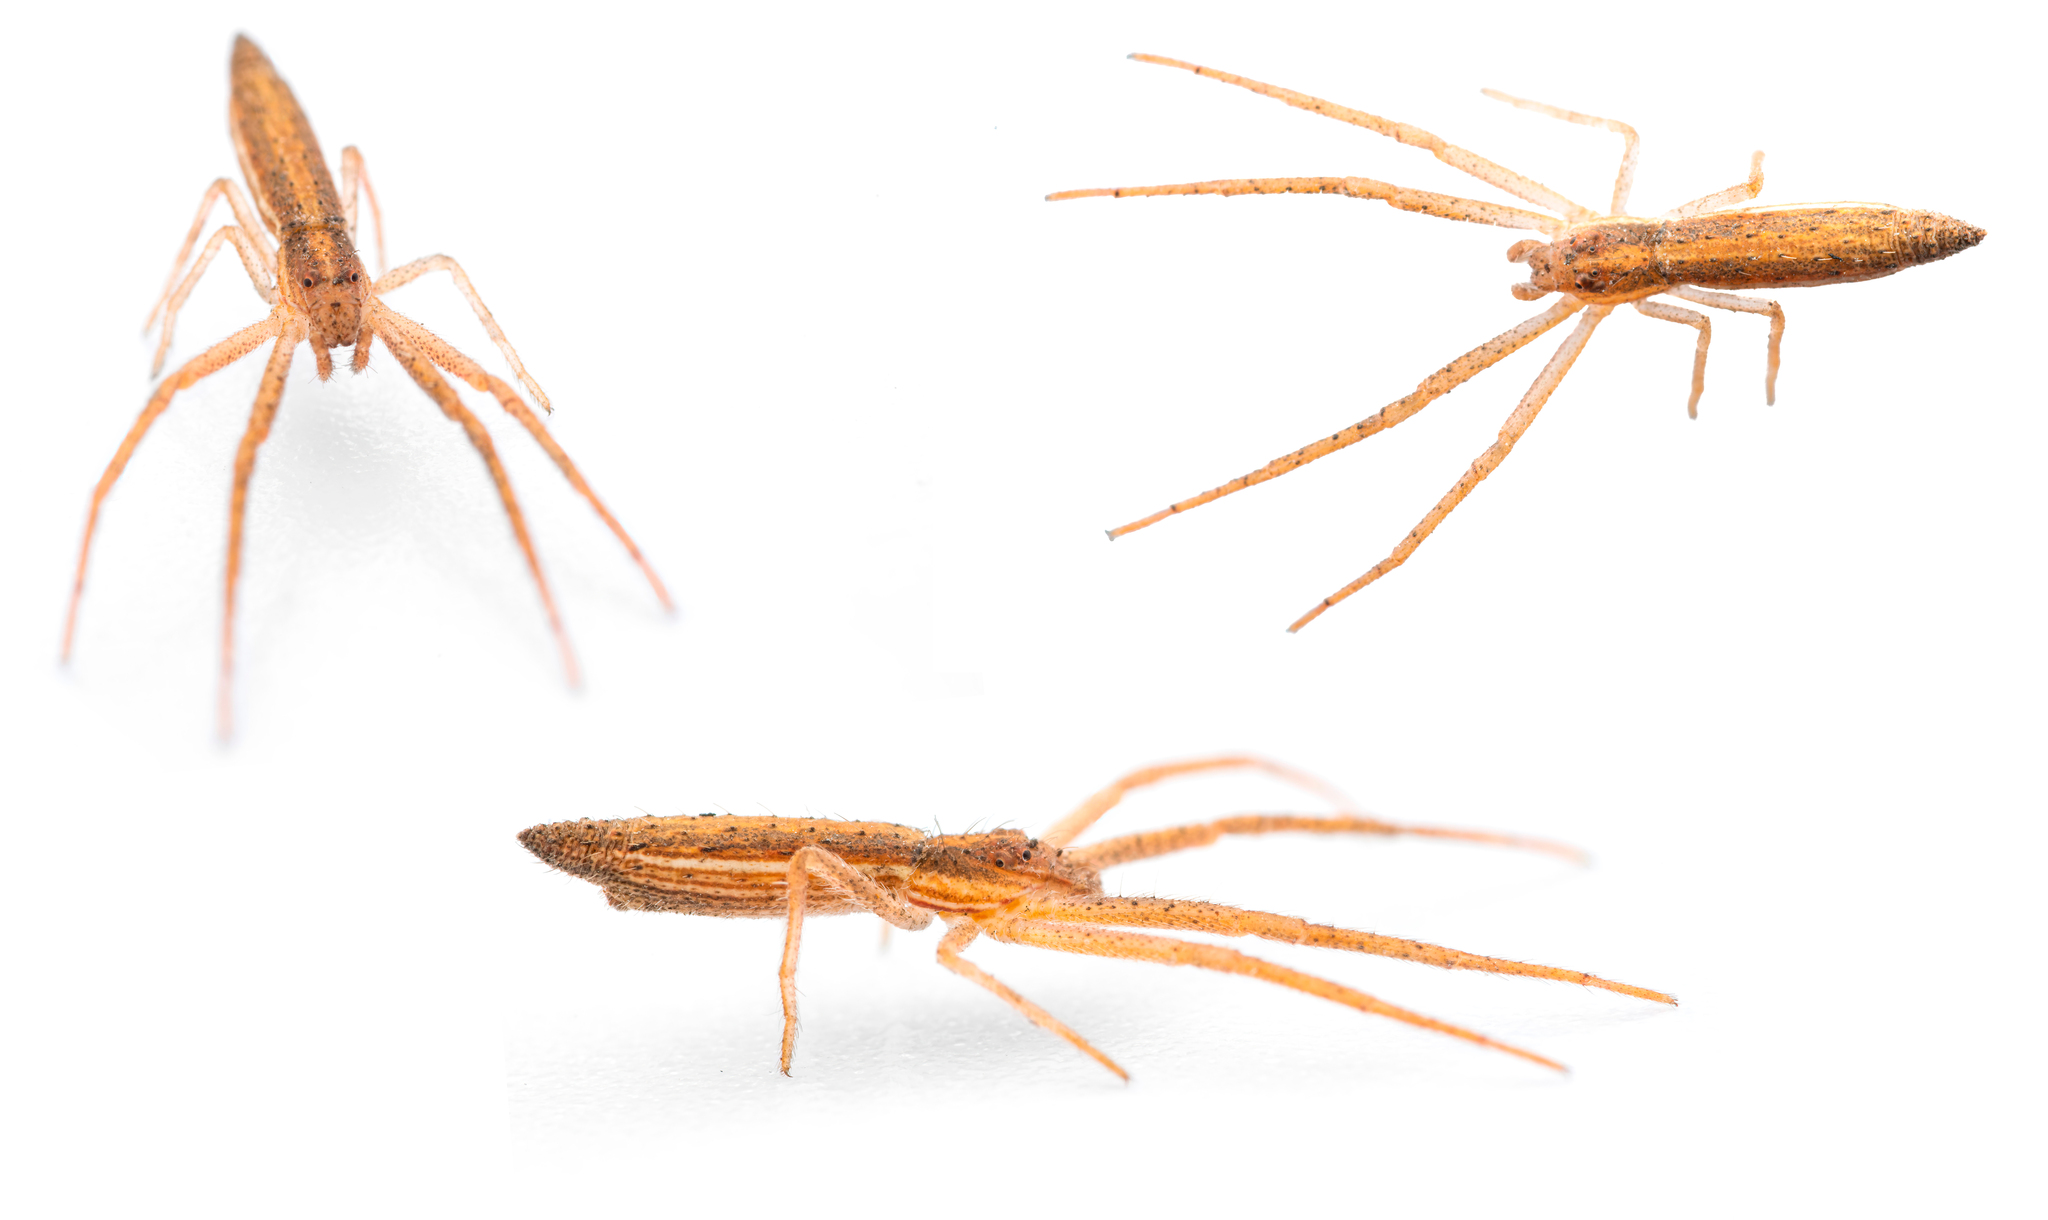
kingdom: Animalia
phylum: Arthropoda
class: Arachnida
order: Araneae
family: Thomisidae
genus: Monaeses
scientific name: Monaeses paradoxus
